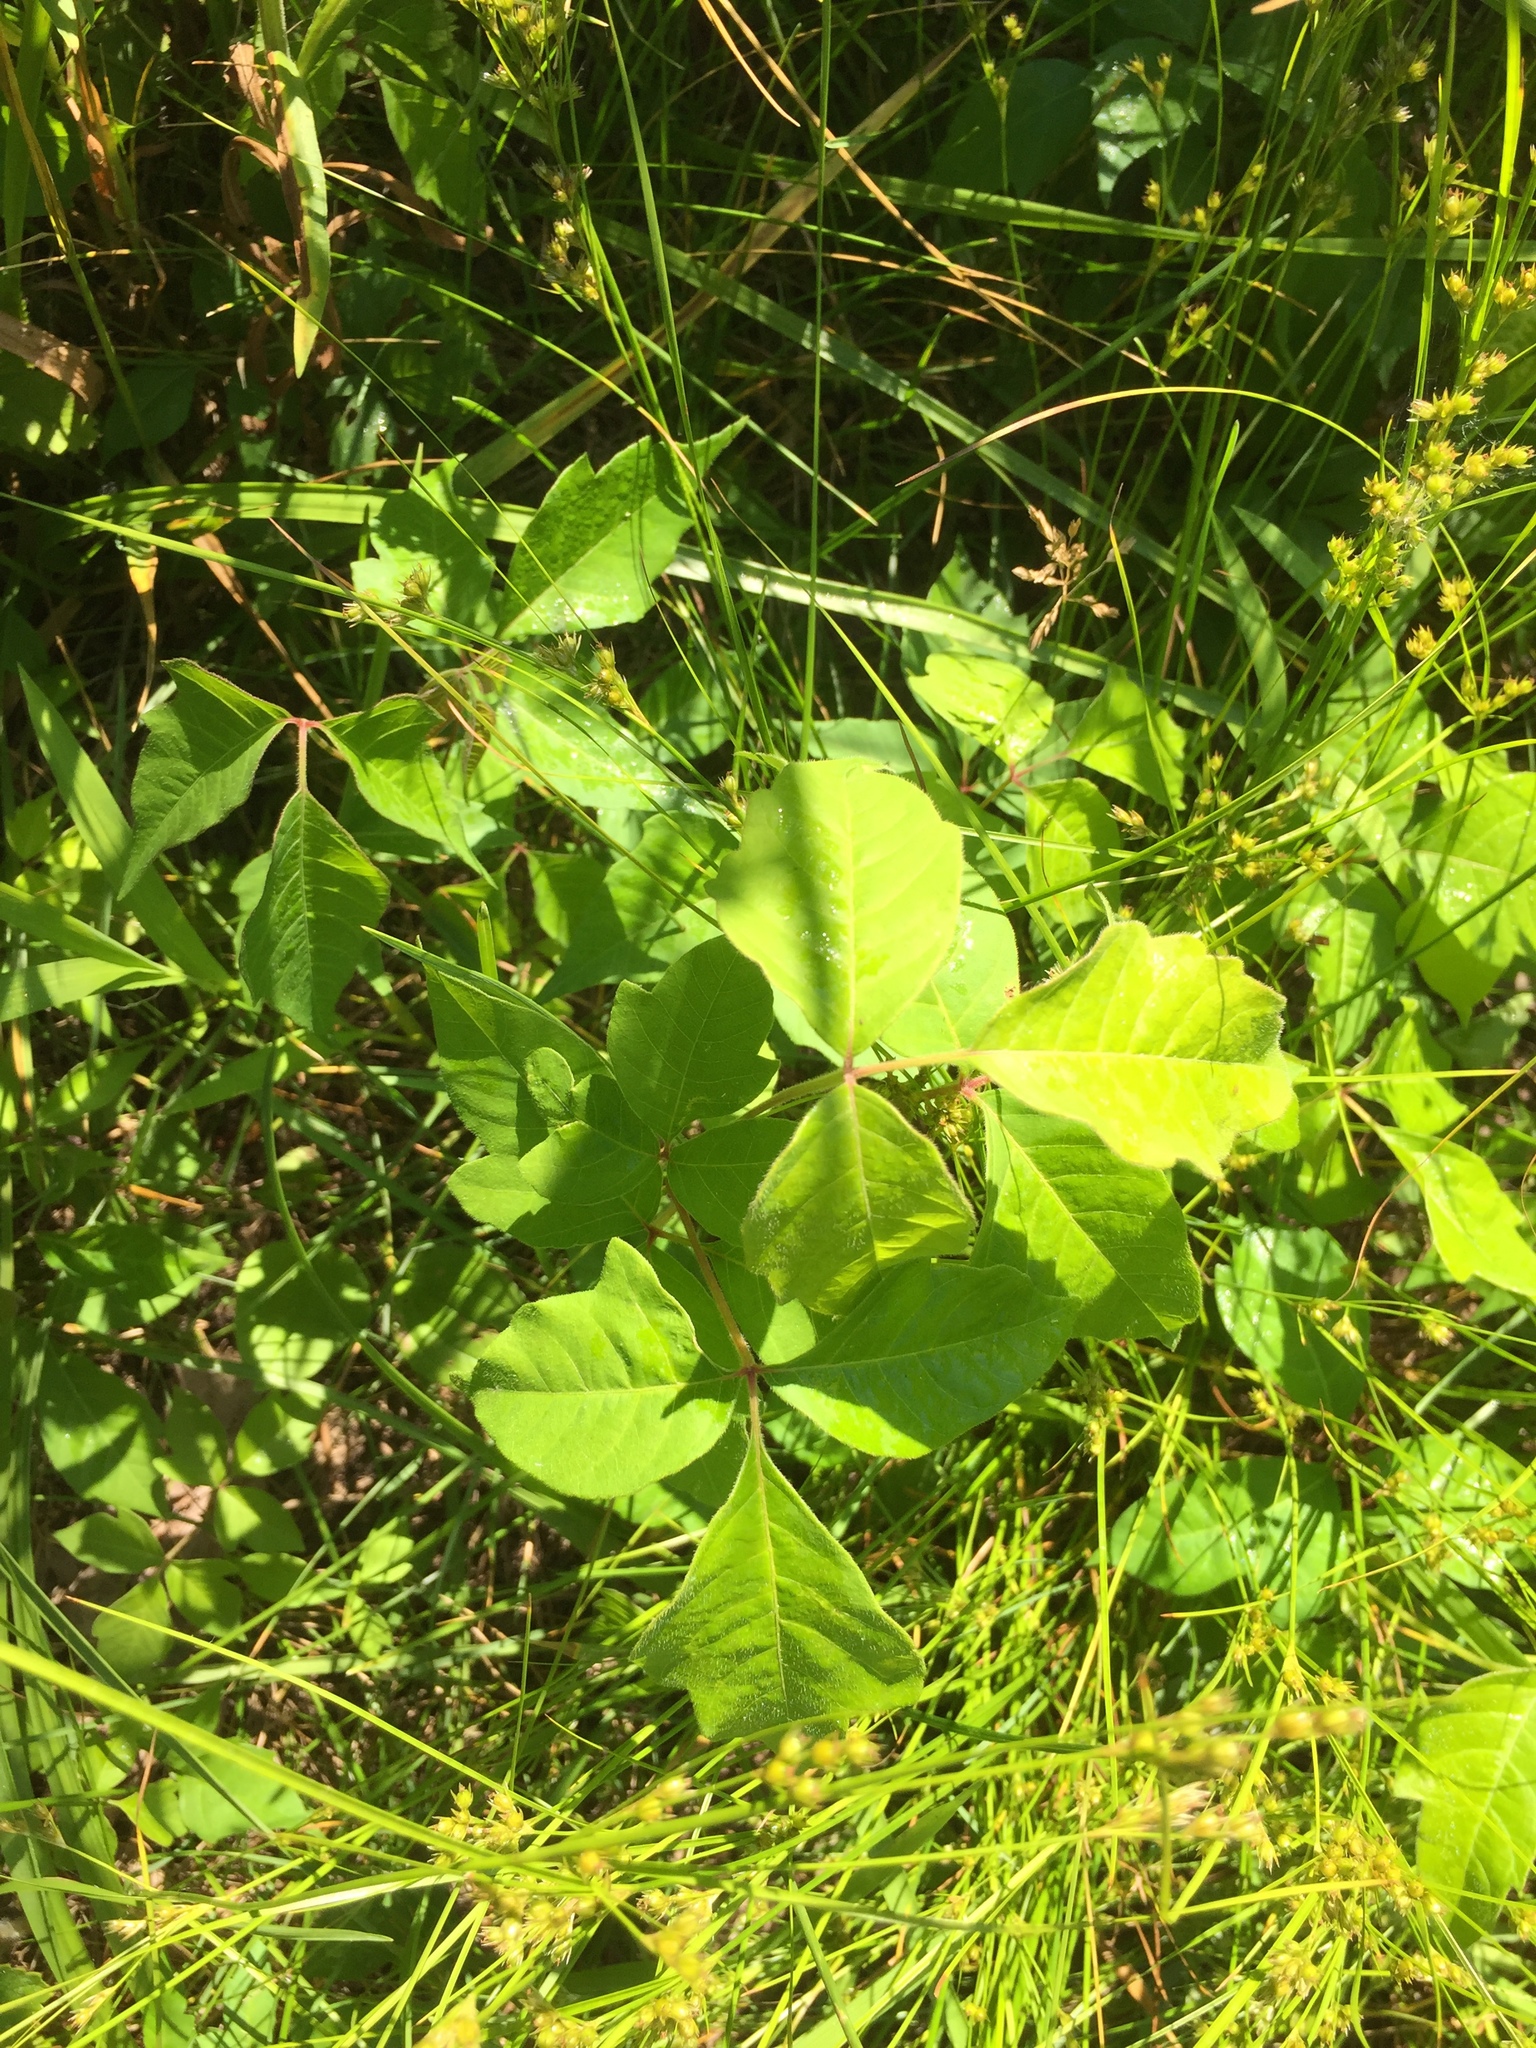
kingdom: Plantae
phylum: Tracheophyta
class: Magnoliopsida
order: Sapindales
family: Anacardiaceae
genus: Toxicodendron
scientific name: Toxicodendron radicans
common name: Poison ivy
